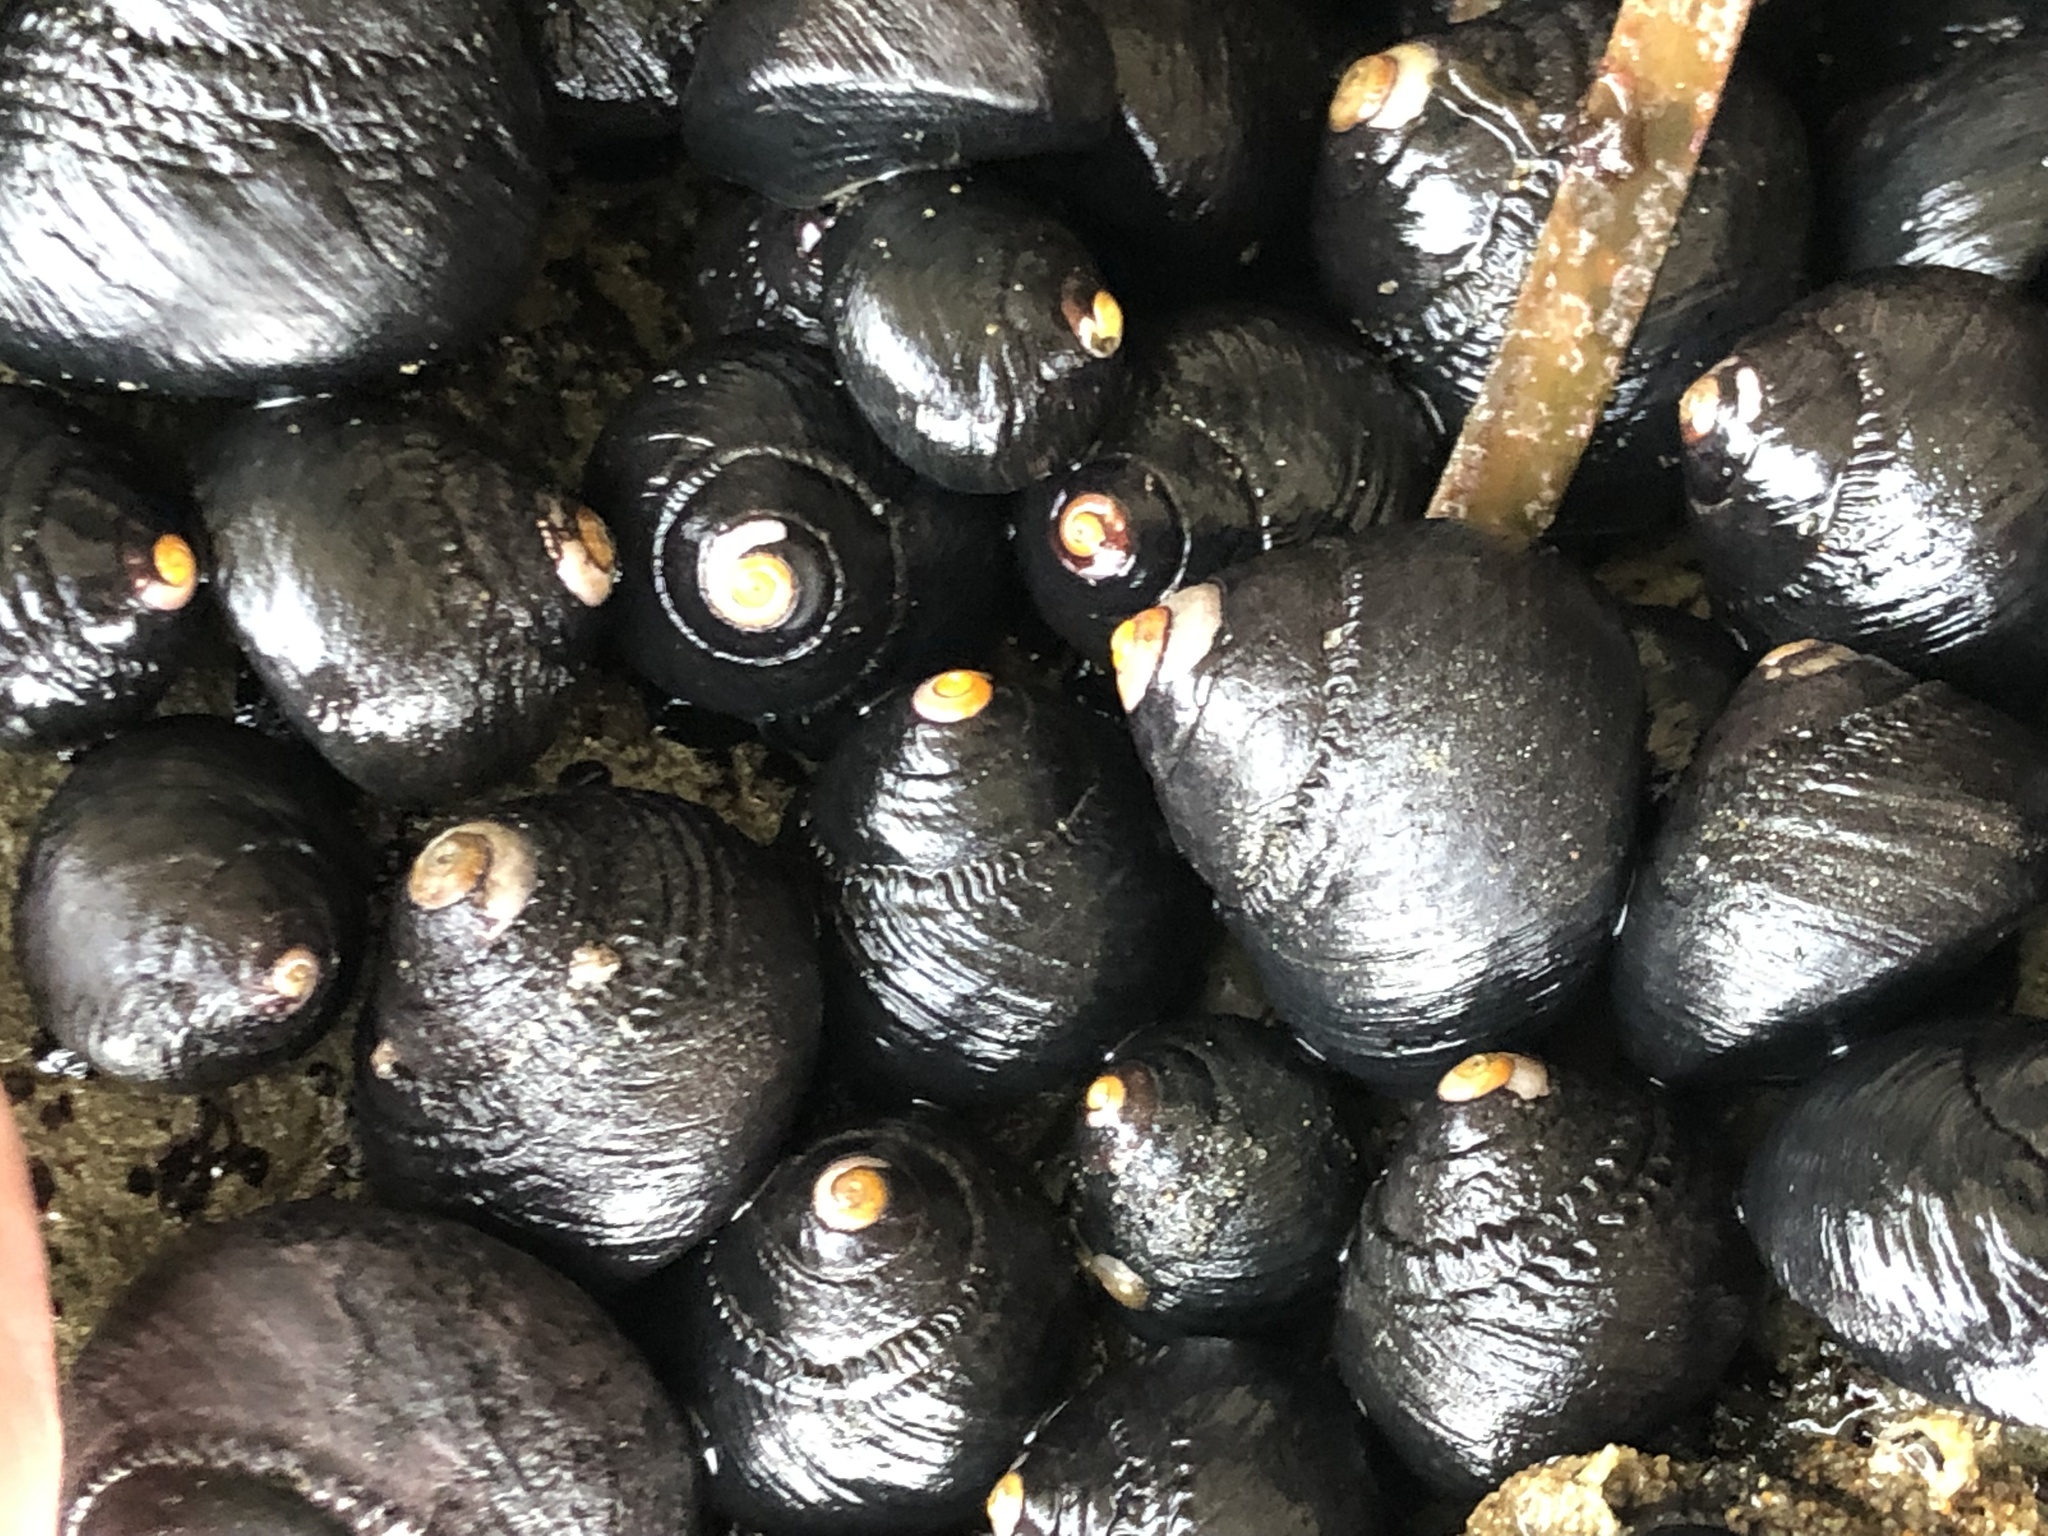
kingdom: Animalia
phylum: Mollusca
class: Gastropoda
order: Trochida
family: Tegulidae
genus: Tegula
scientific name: Tegula funebralis
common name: Black tegula
